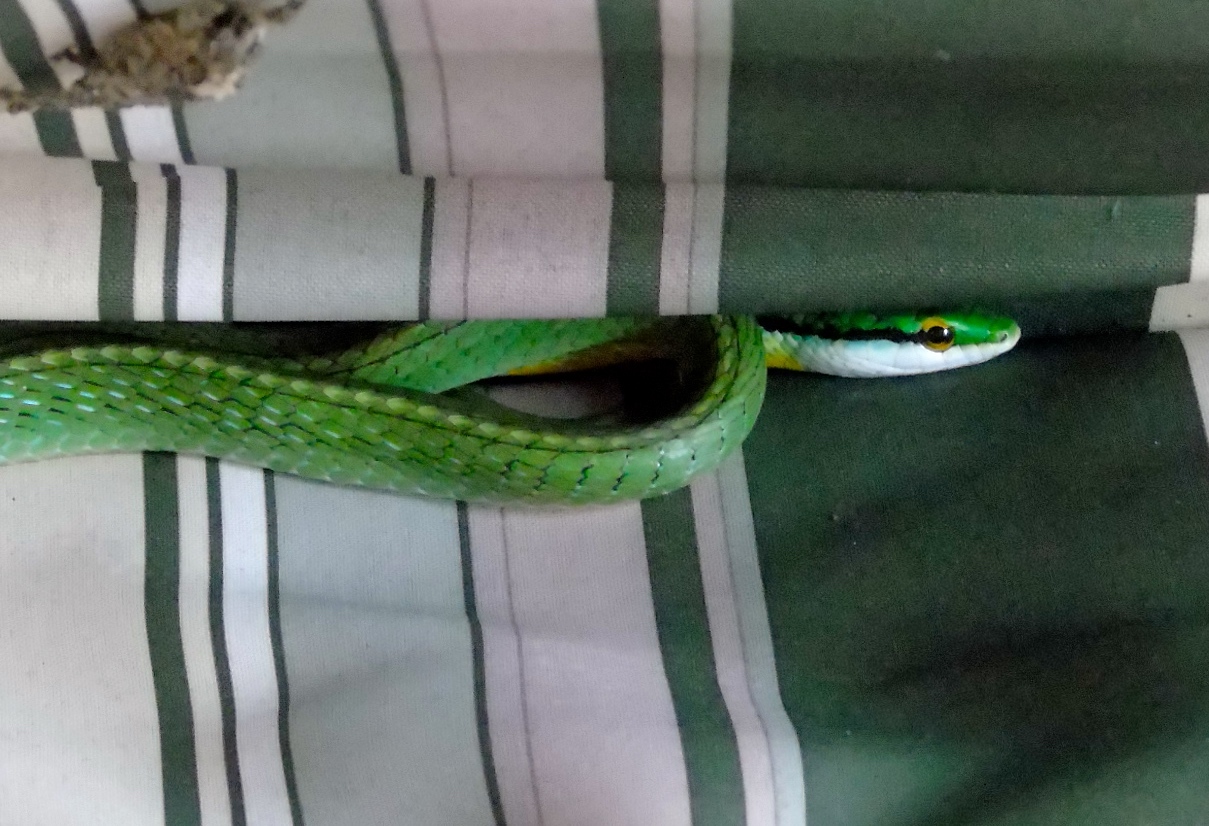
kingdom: Animalia
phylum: Chordata
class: Squamata
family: Colubridae
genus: Leptophis
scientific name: Leptophis diplotropis
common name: Pacific coast parrot snake
